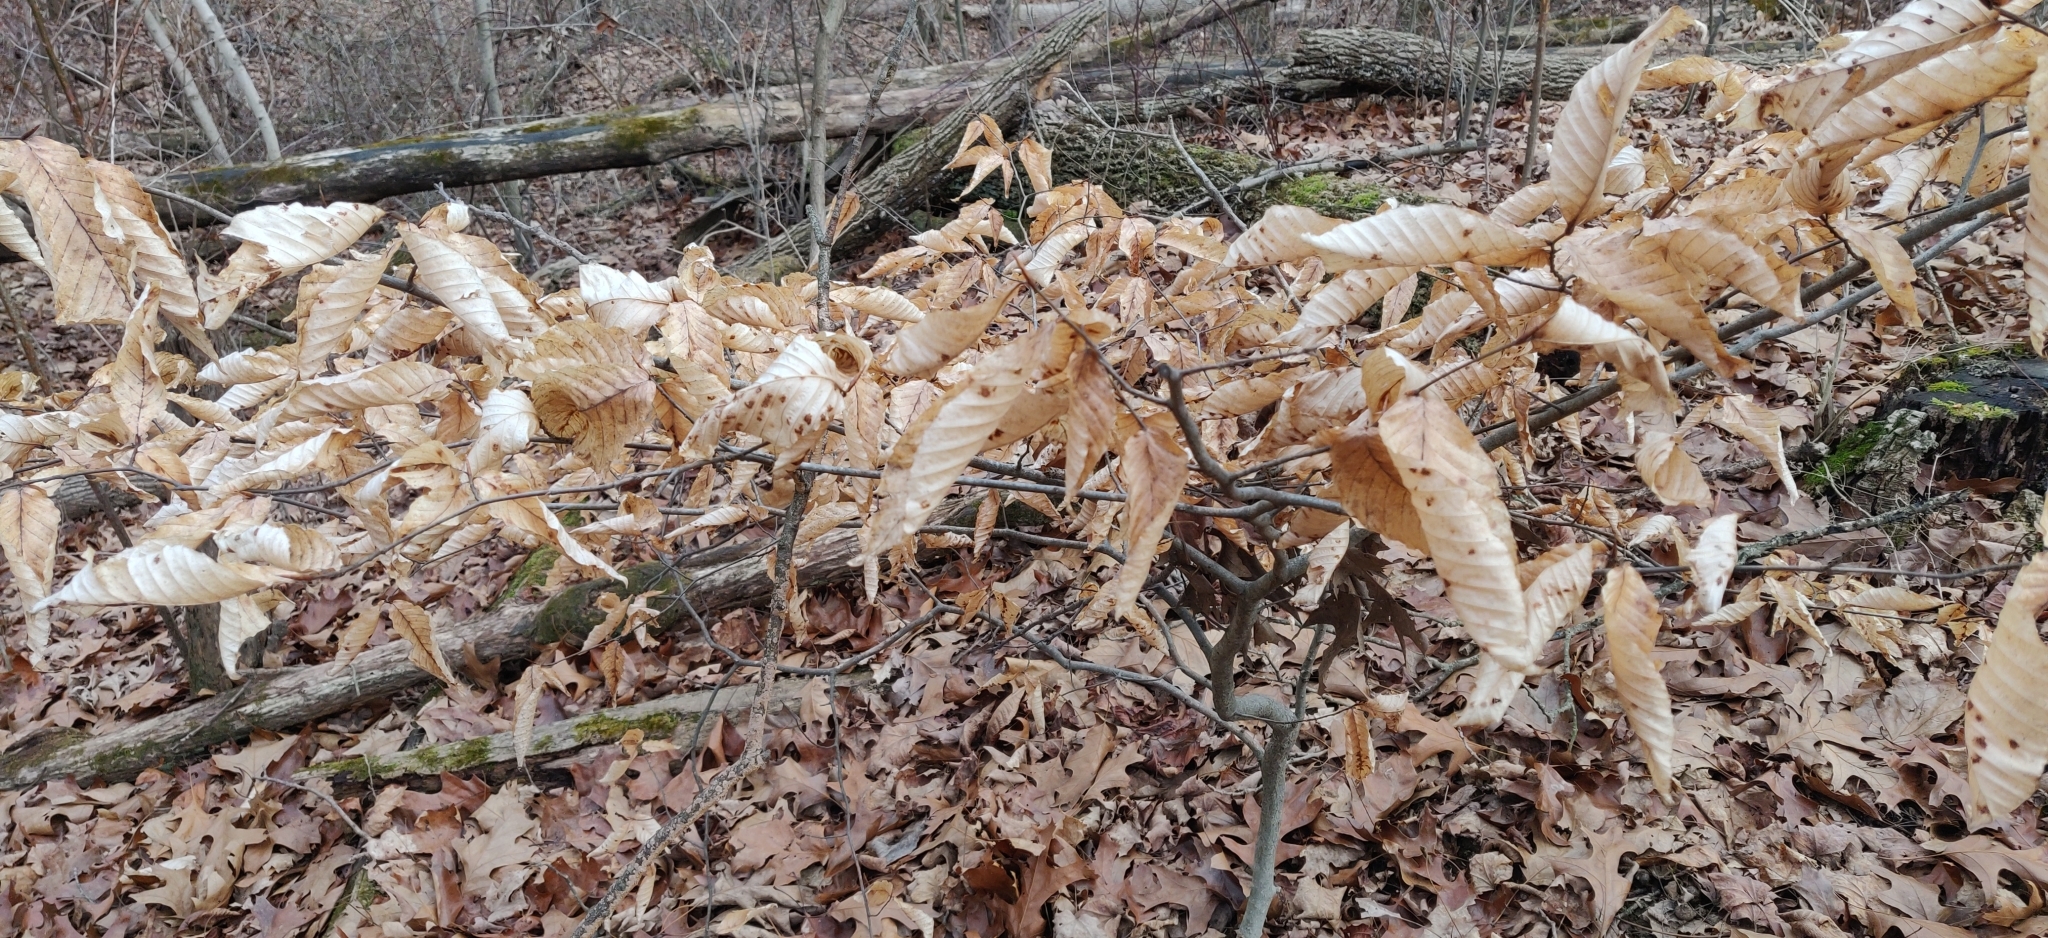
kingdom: Plantae
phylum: Tracheophyta
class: Magnoliopsida
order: Fagales
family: Fagaceae
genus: Fagus
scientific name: Fagus grandifolia
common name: American beech
